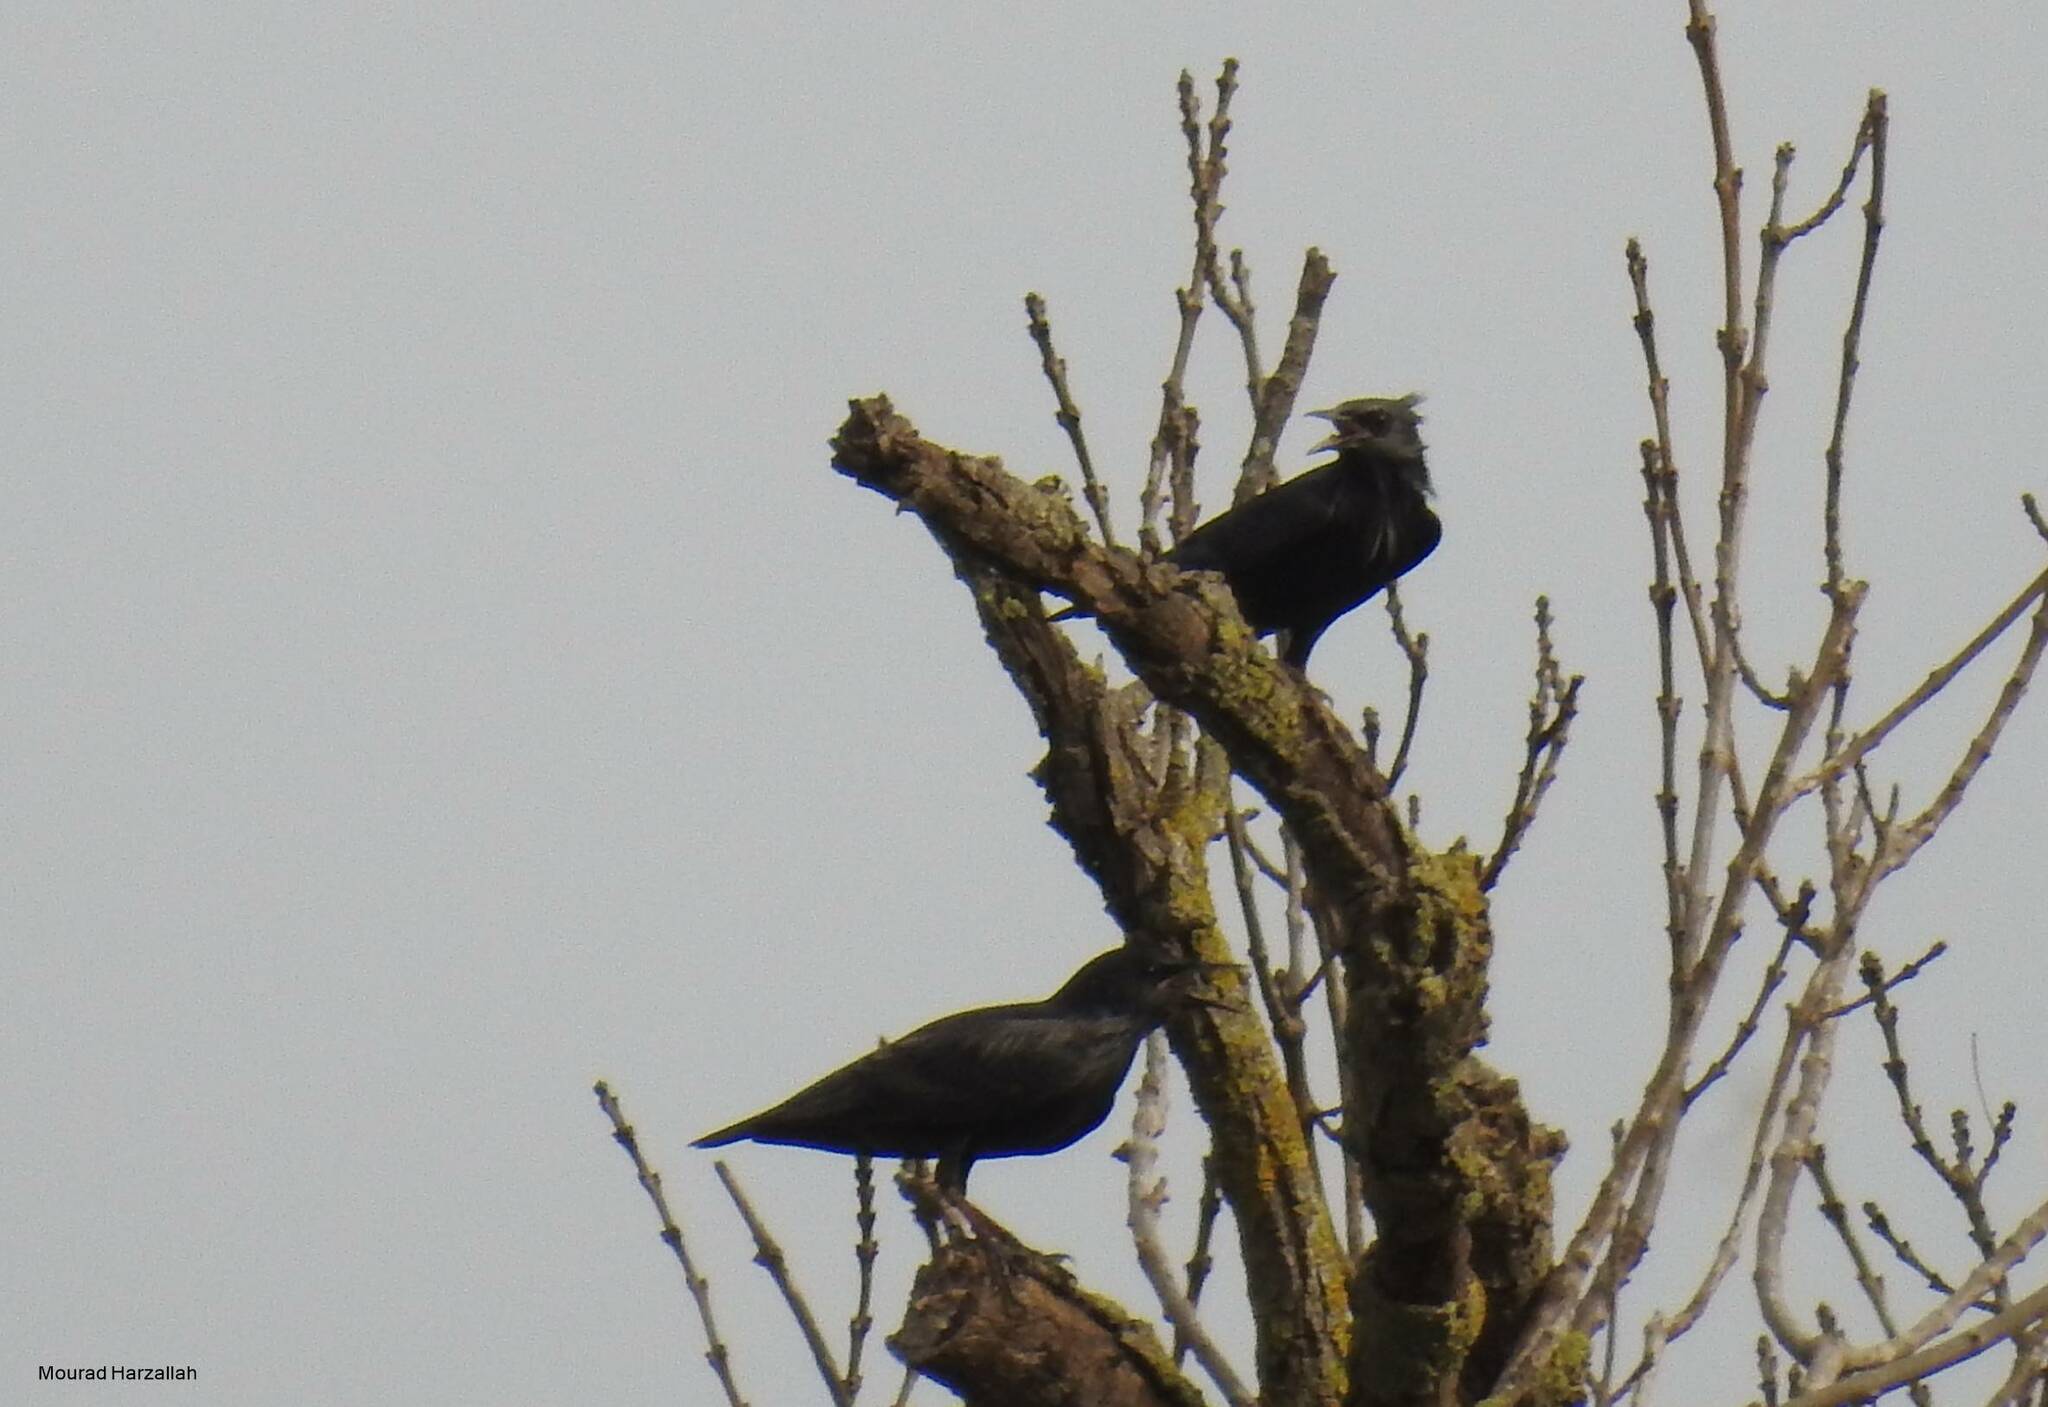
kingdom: Animalia
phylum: Chordata
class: Aves
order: Passeriformes
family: Sturnidae
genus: Sturnus
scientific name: Sturnus unicolor
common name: Spotless starling
